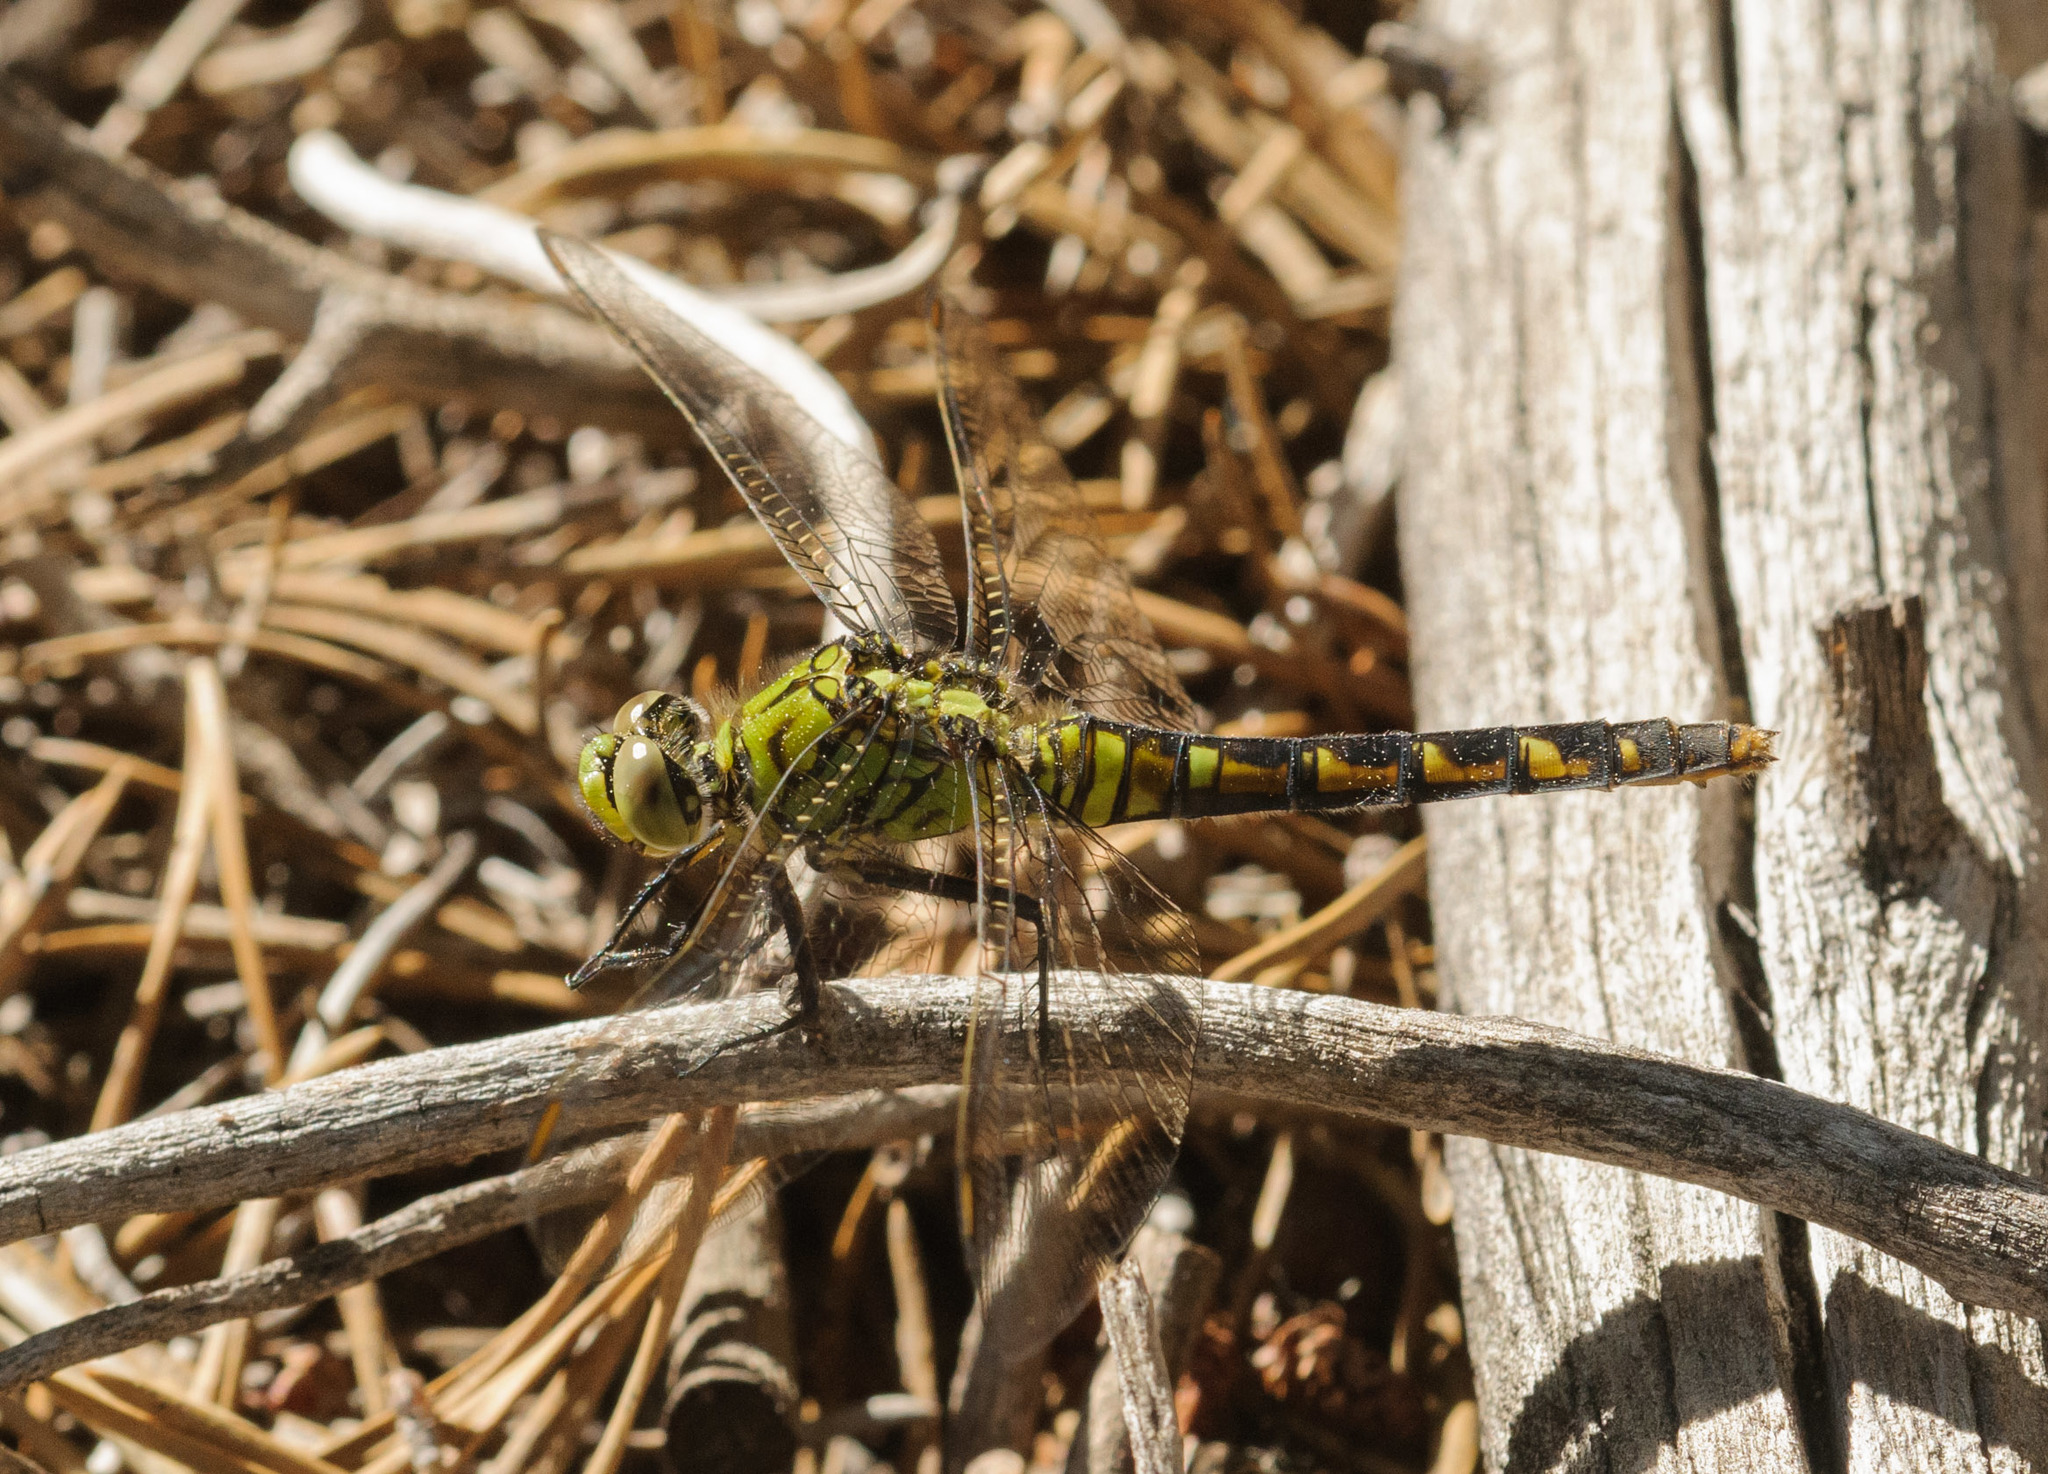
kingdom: Animalia
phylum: Arthropoda
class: Insecta
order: Odonata
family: Libellulidae
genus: Erythemis
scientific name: Erythemis collocata
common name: Western pondhawk
